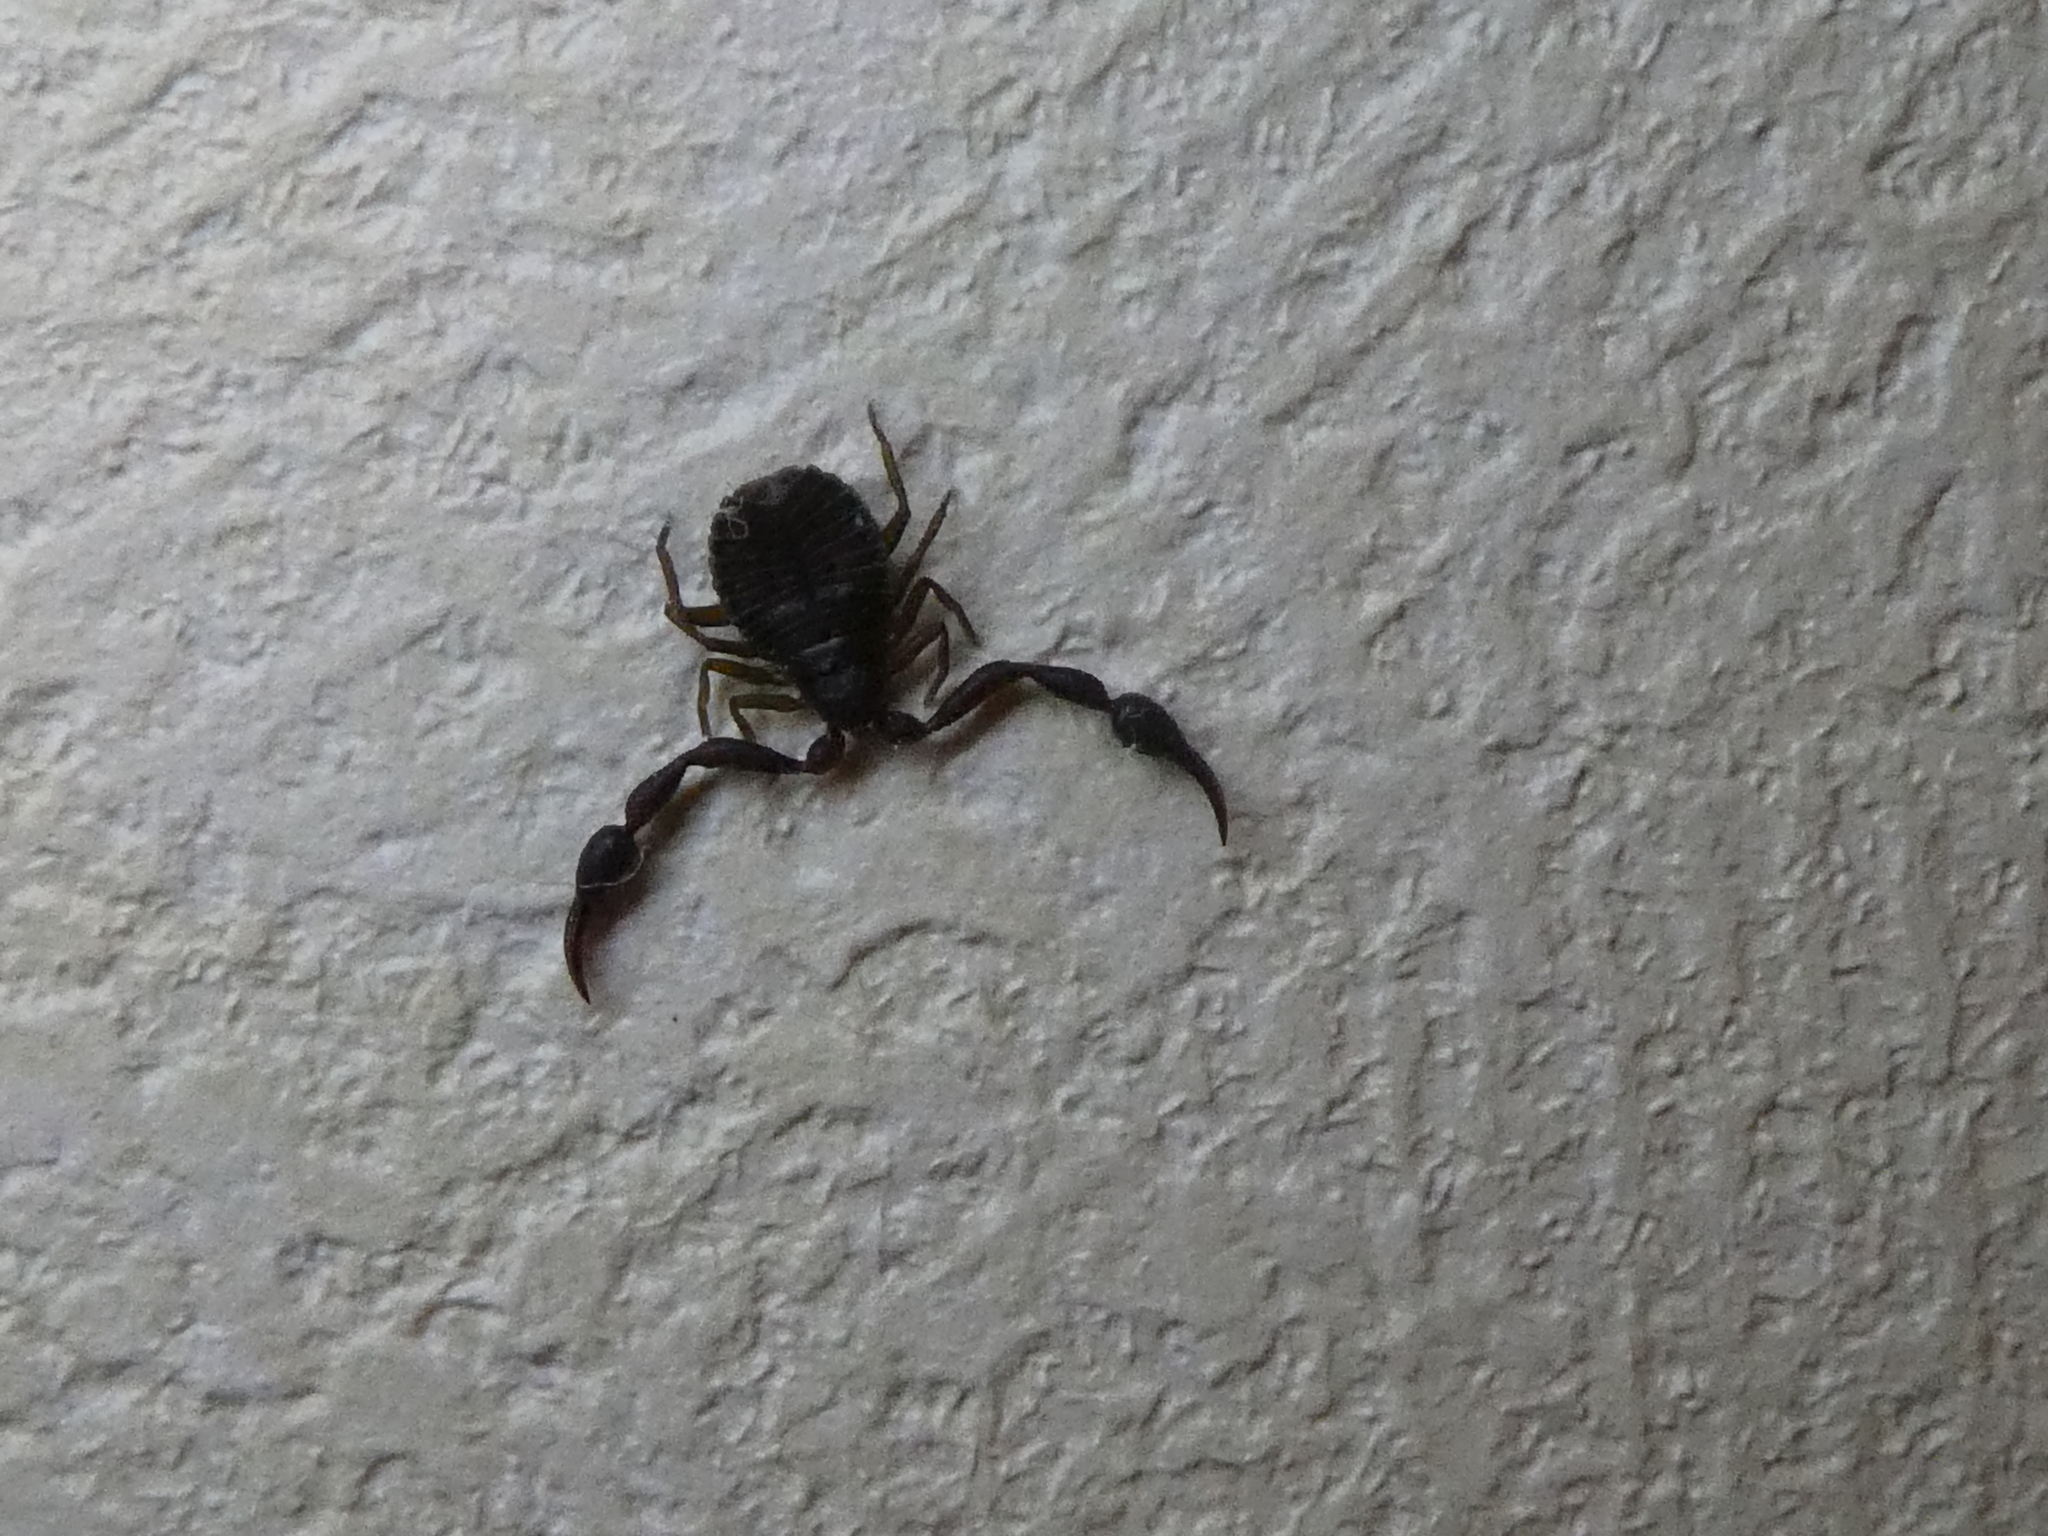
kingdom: Animalia
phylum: Arthropoda
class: Arachnida
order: Pseudoscorpiones
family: Cheliferidae
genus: Chelifer
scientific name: Chelifer cancroides
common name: House false-scorpion
